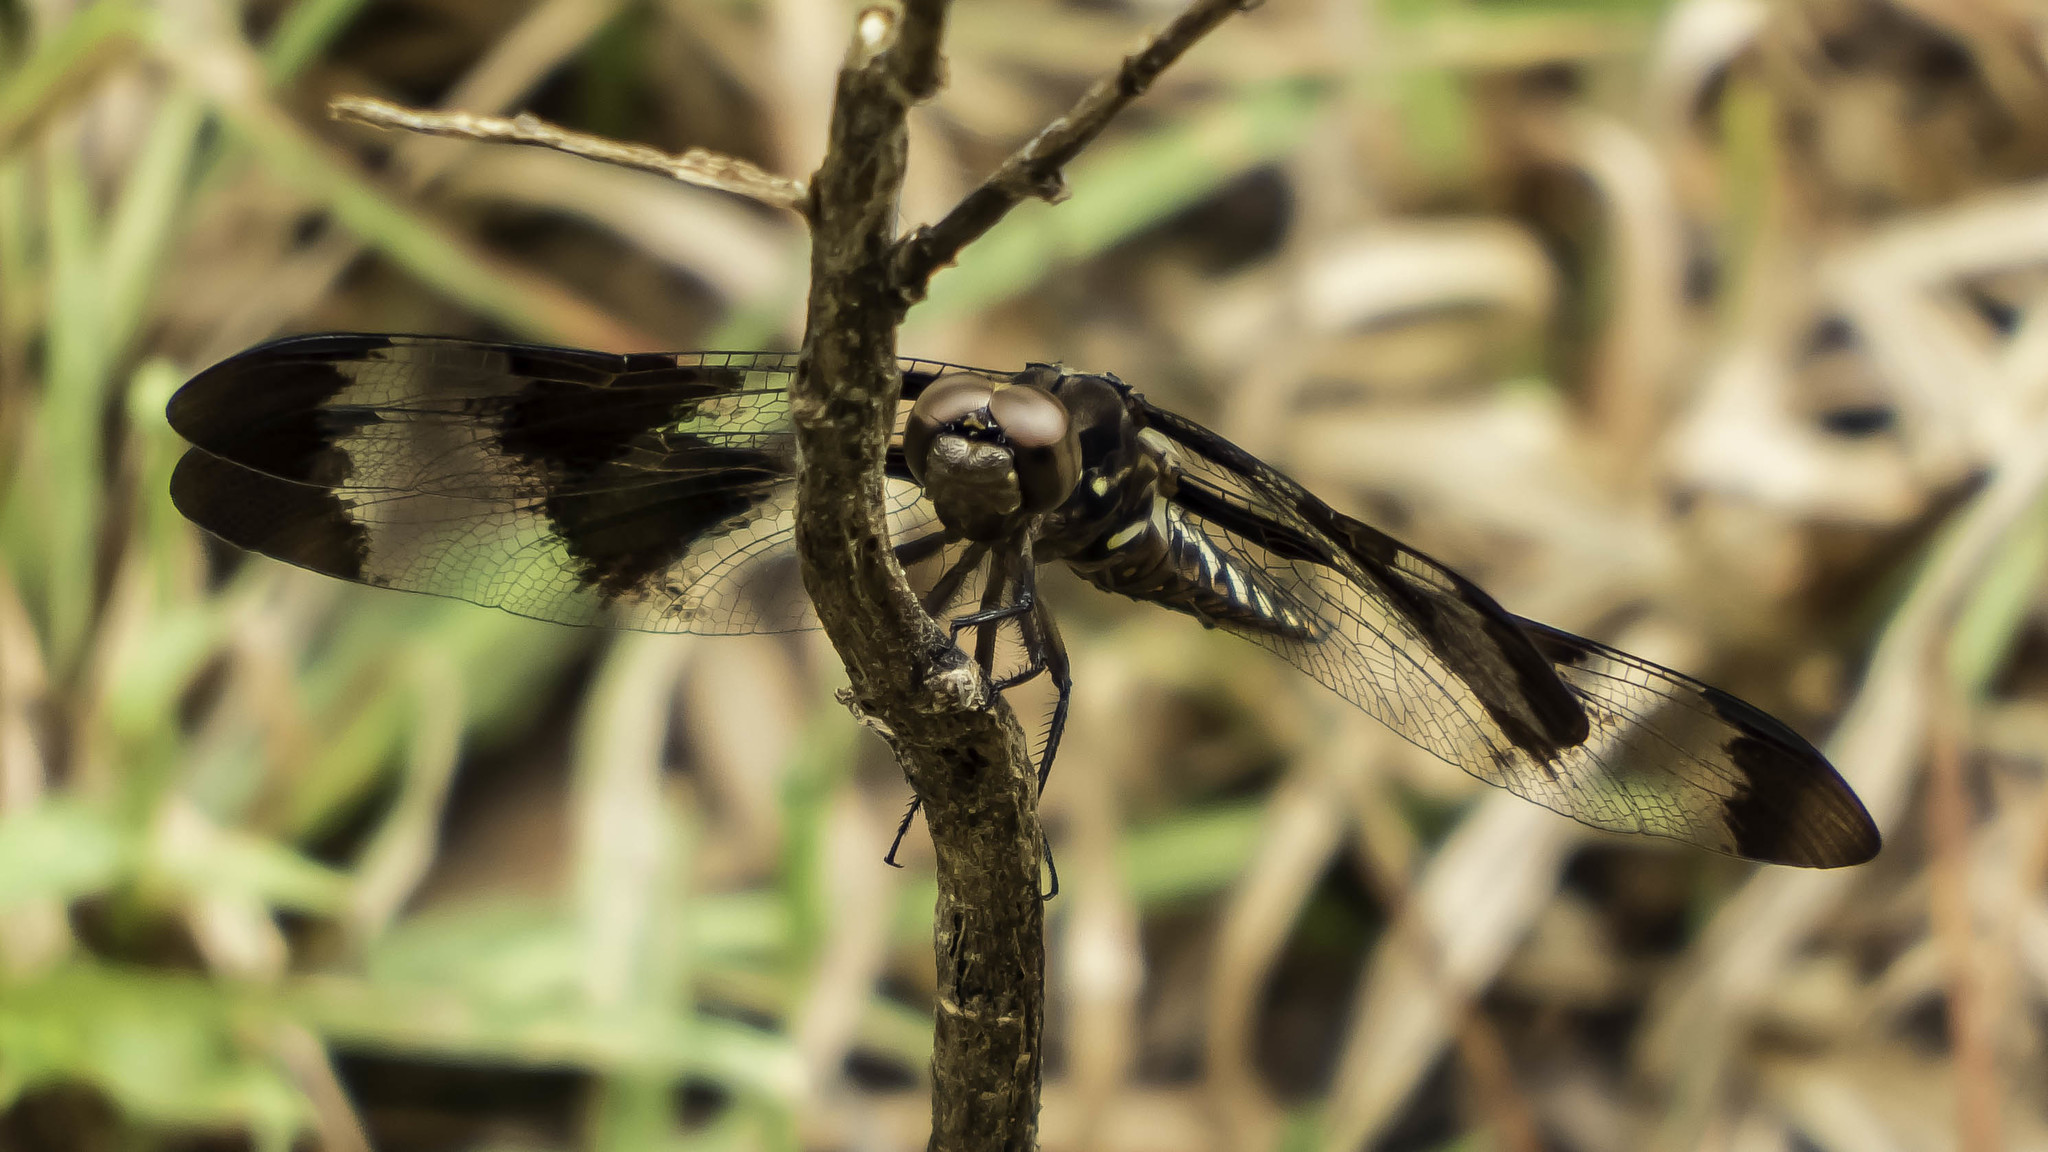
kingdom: Animalia
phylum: Arthropoda
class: Insecta
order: Odonata
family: Libellulidae
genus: Plathemis
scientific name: Plathemis lydia
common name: Common whitetail
